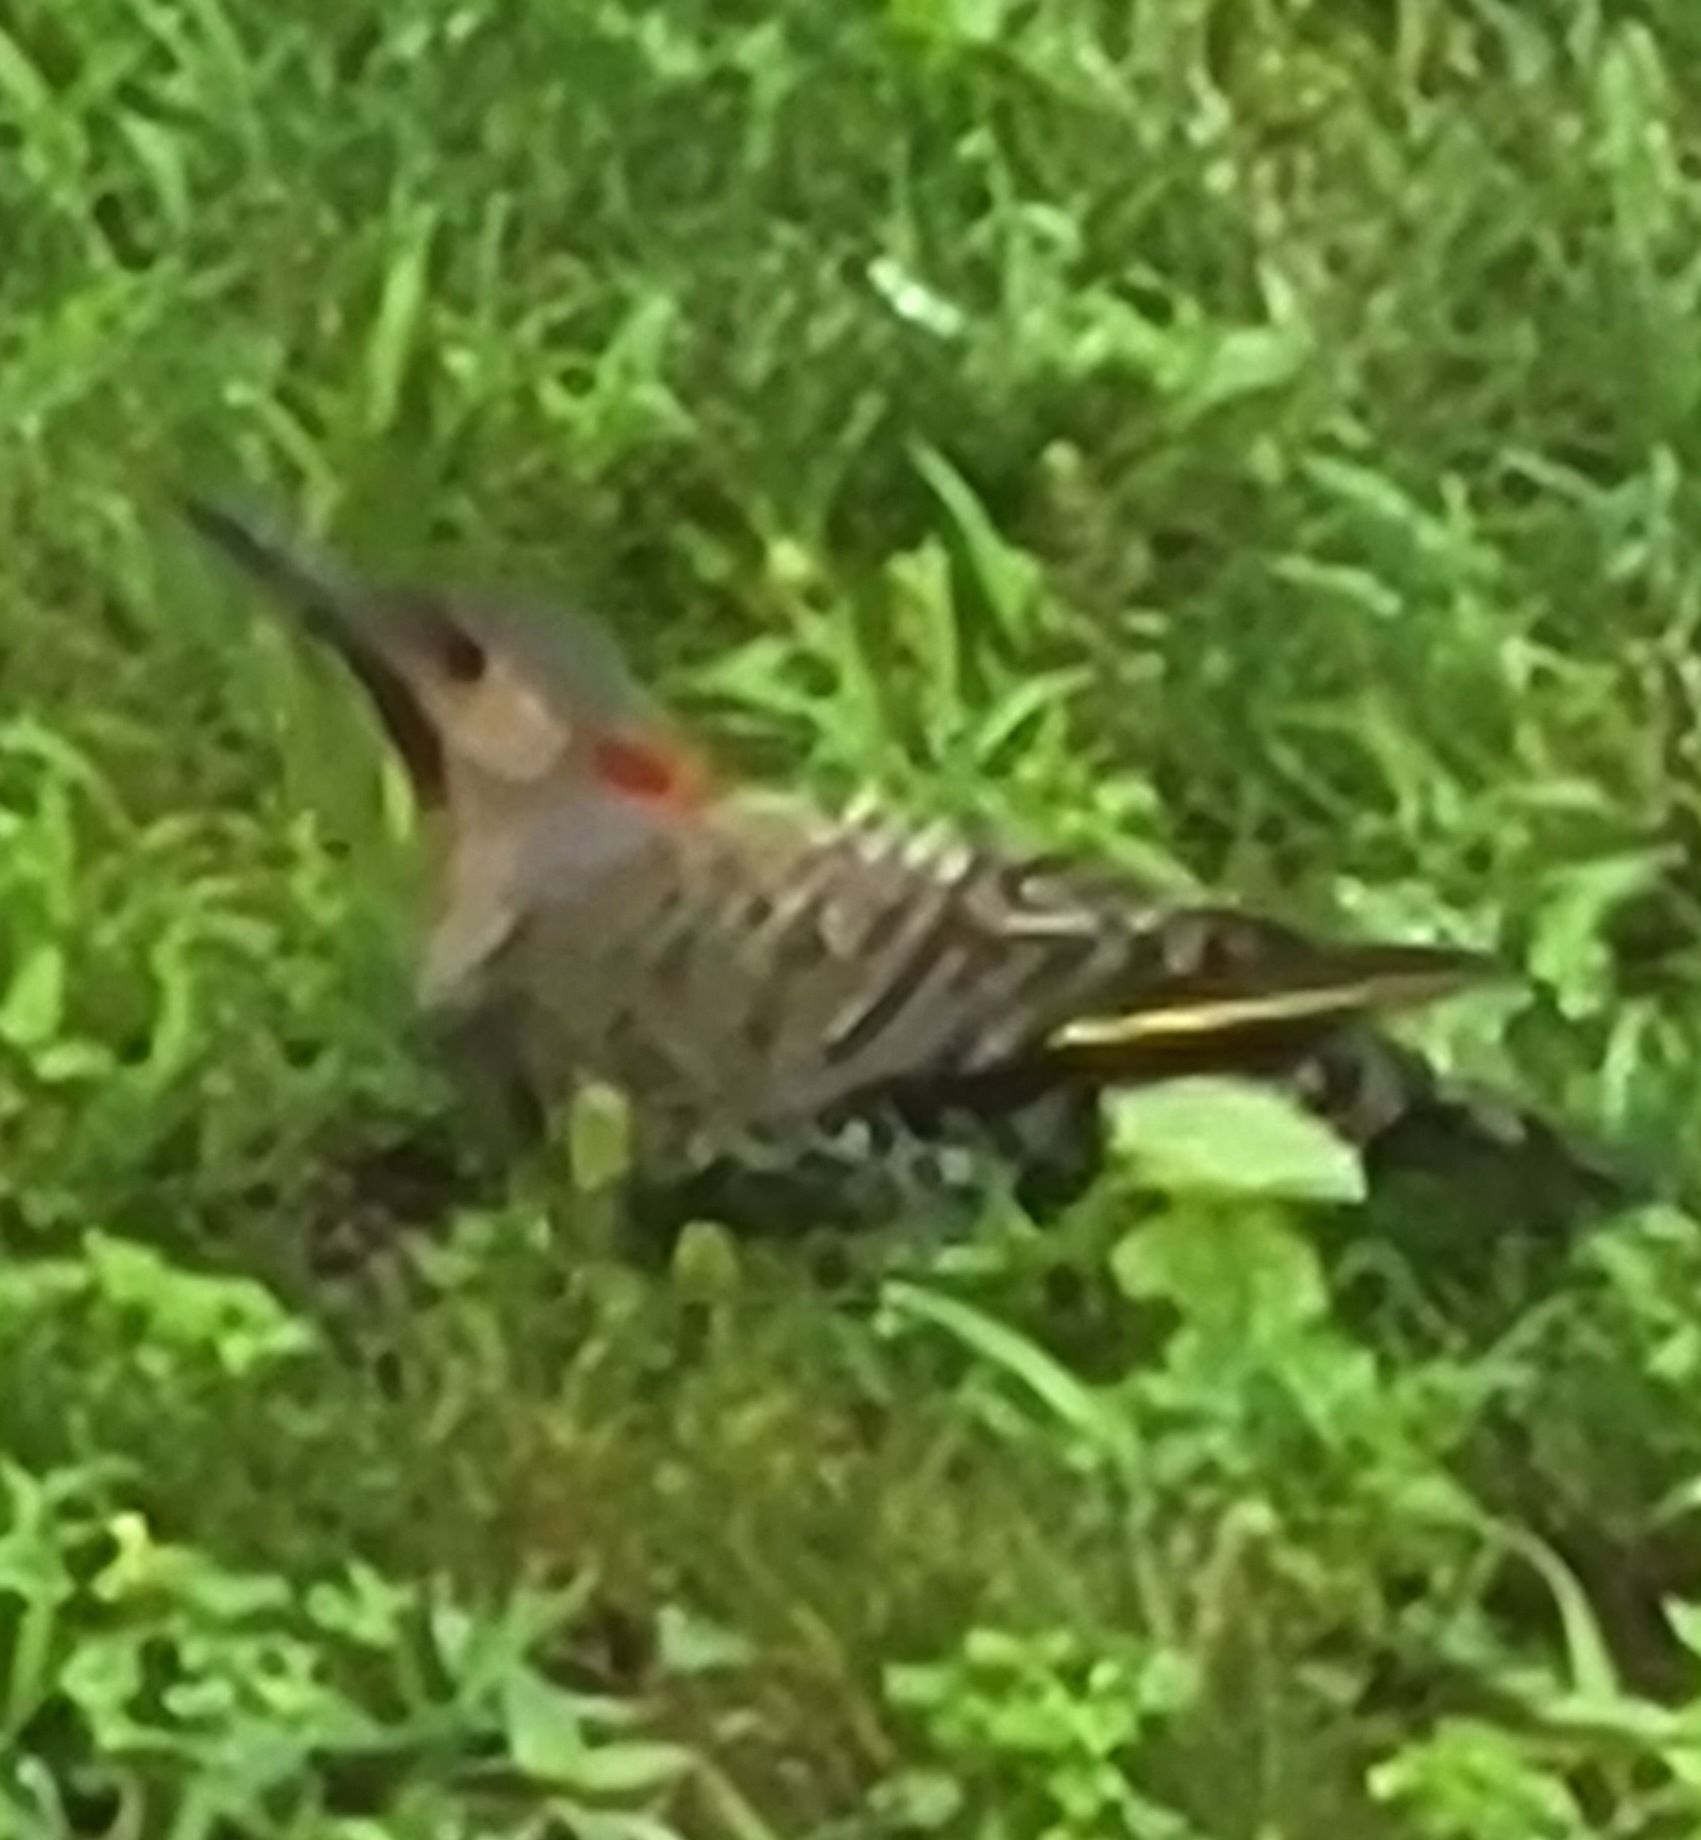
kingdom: Animalia
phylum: Chordata
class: Aves
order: Piciformes
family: Picidae
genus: Colaptes
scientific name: Colaptes auratus
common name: Northern flicker
